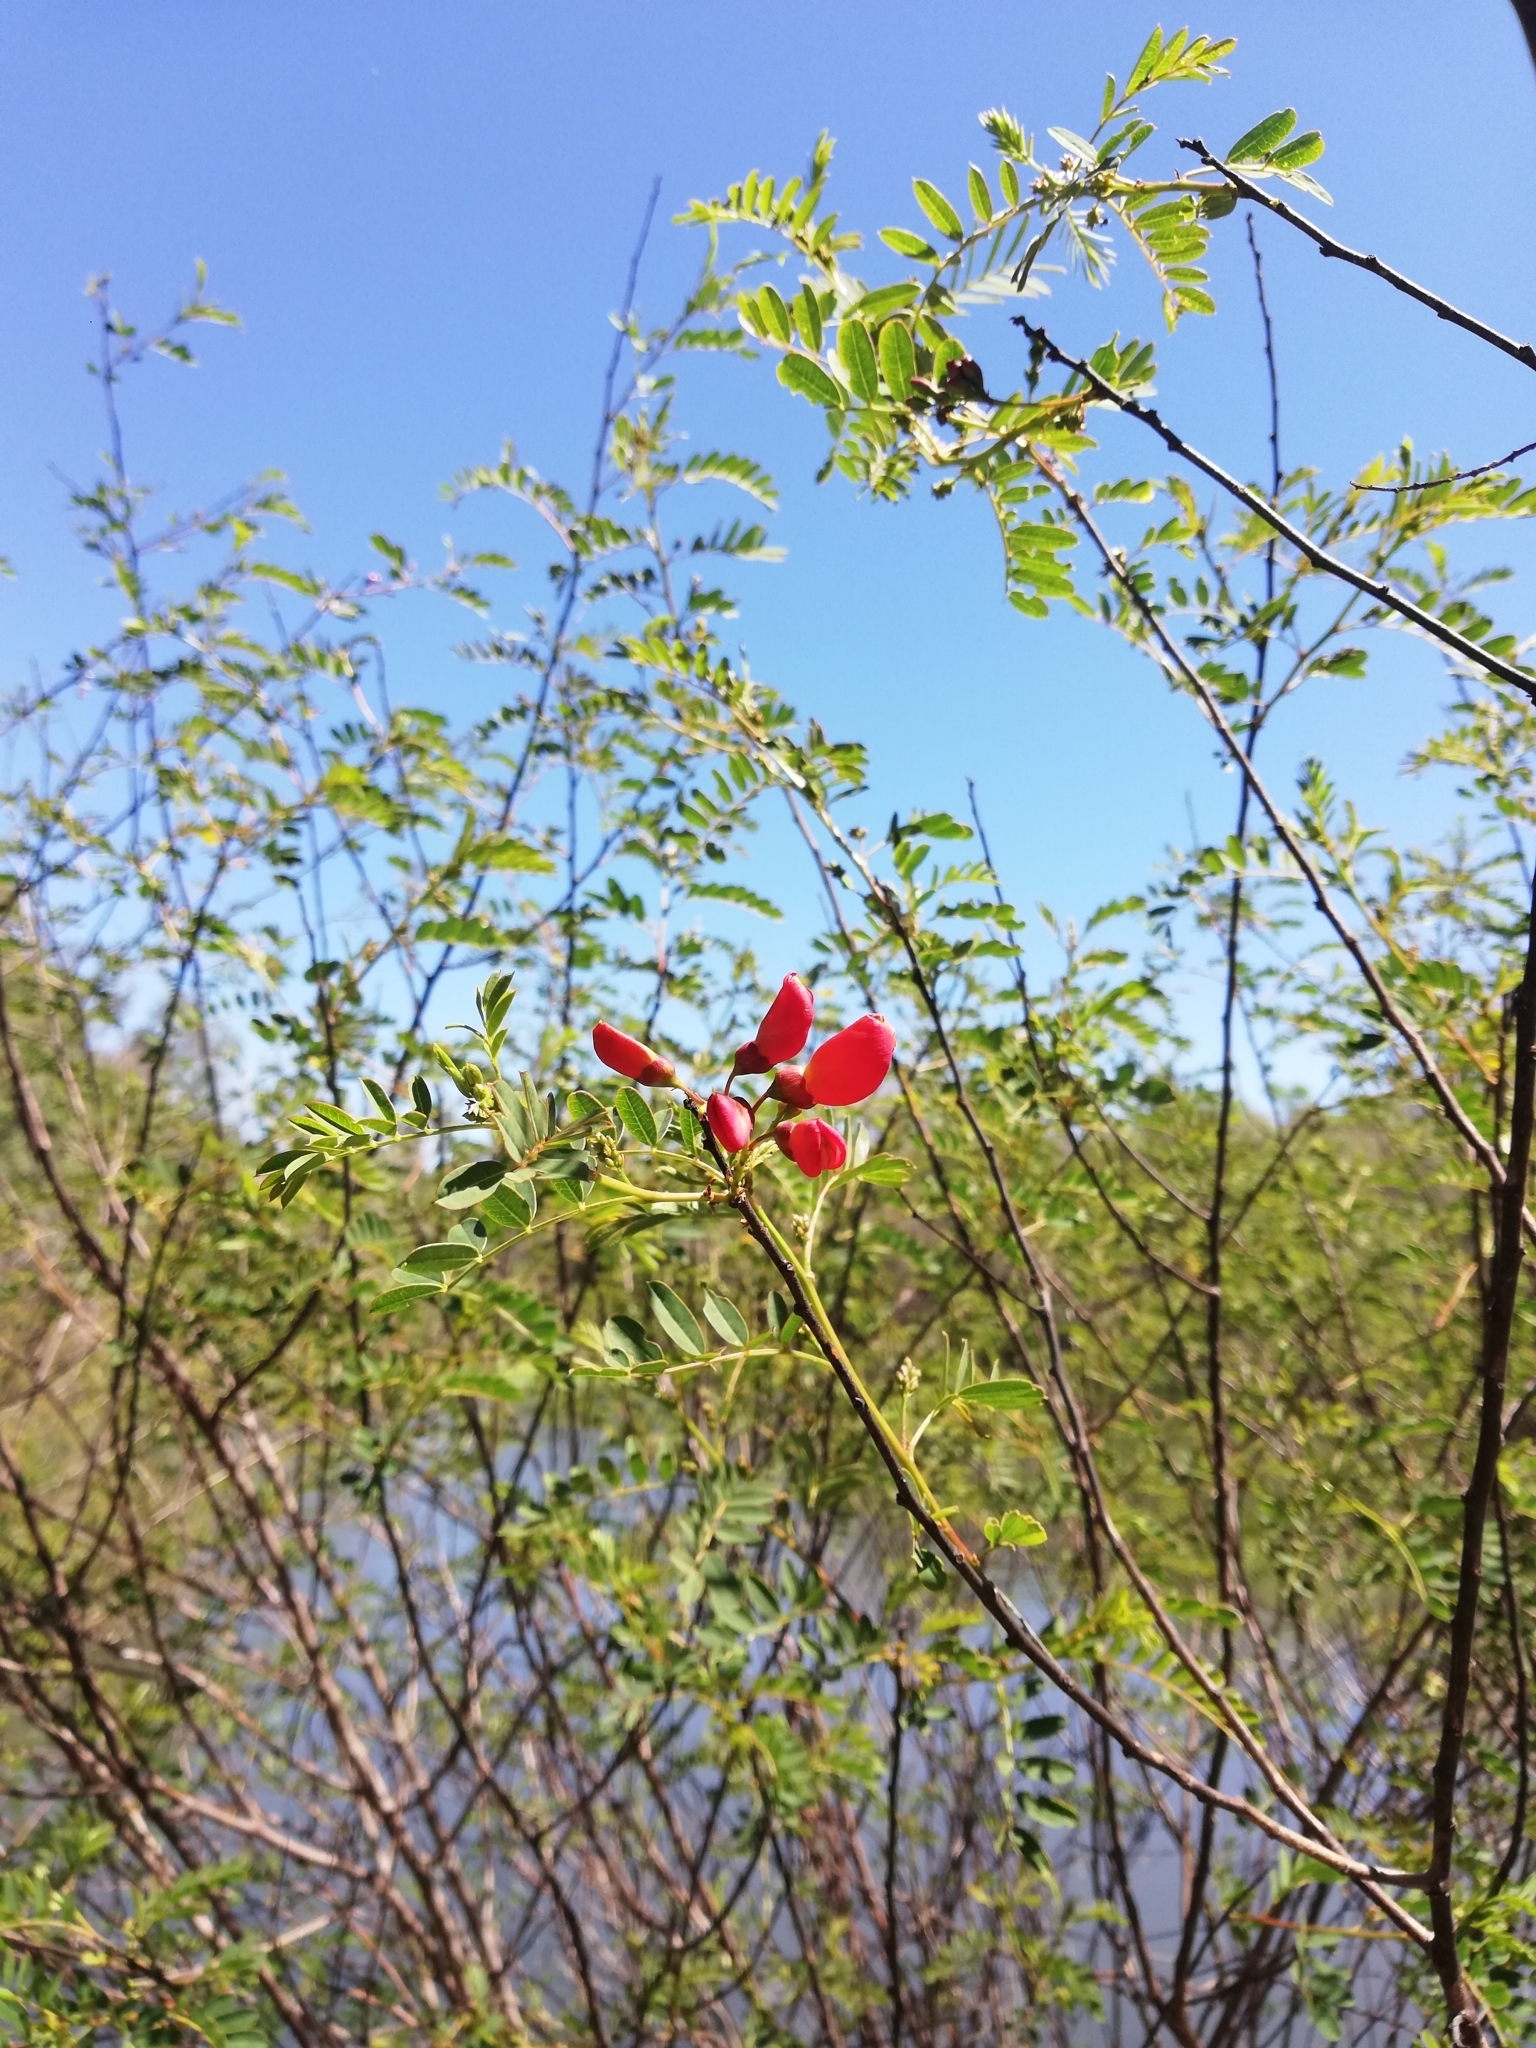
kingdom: Plantae
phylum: Tracheophyta
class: Magnoliopsida
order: Fabales
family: Fabaceae
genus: Sesbania
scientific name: Sesbania punicea
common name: Rattlebox
